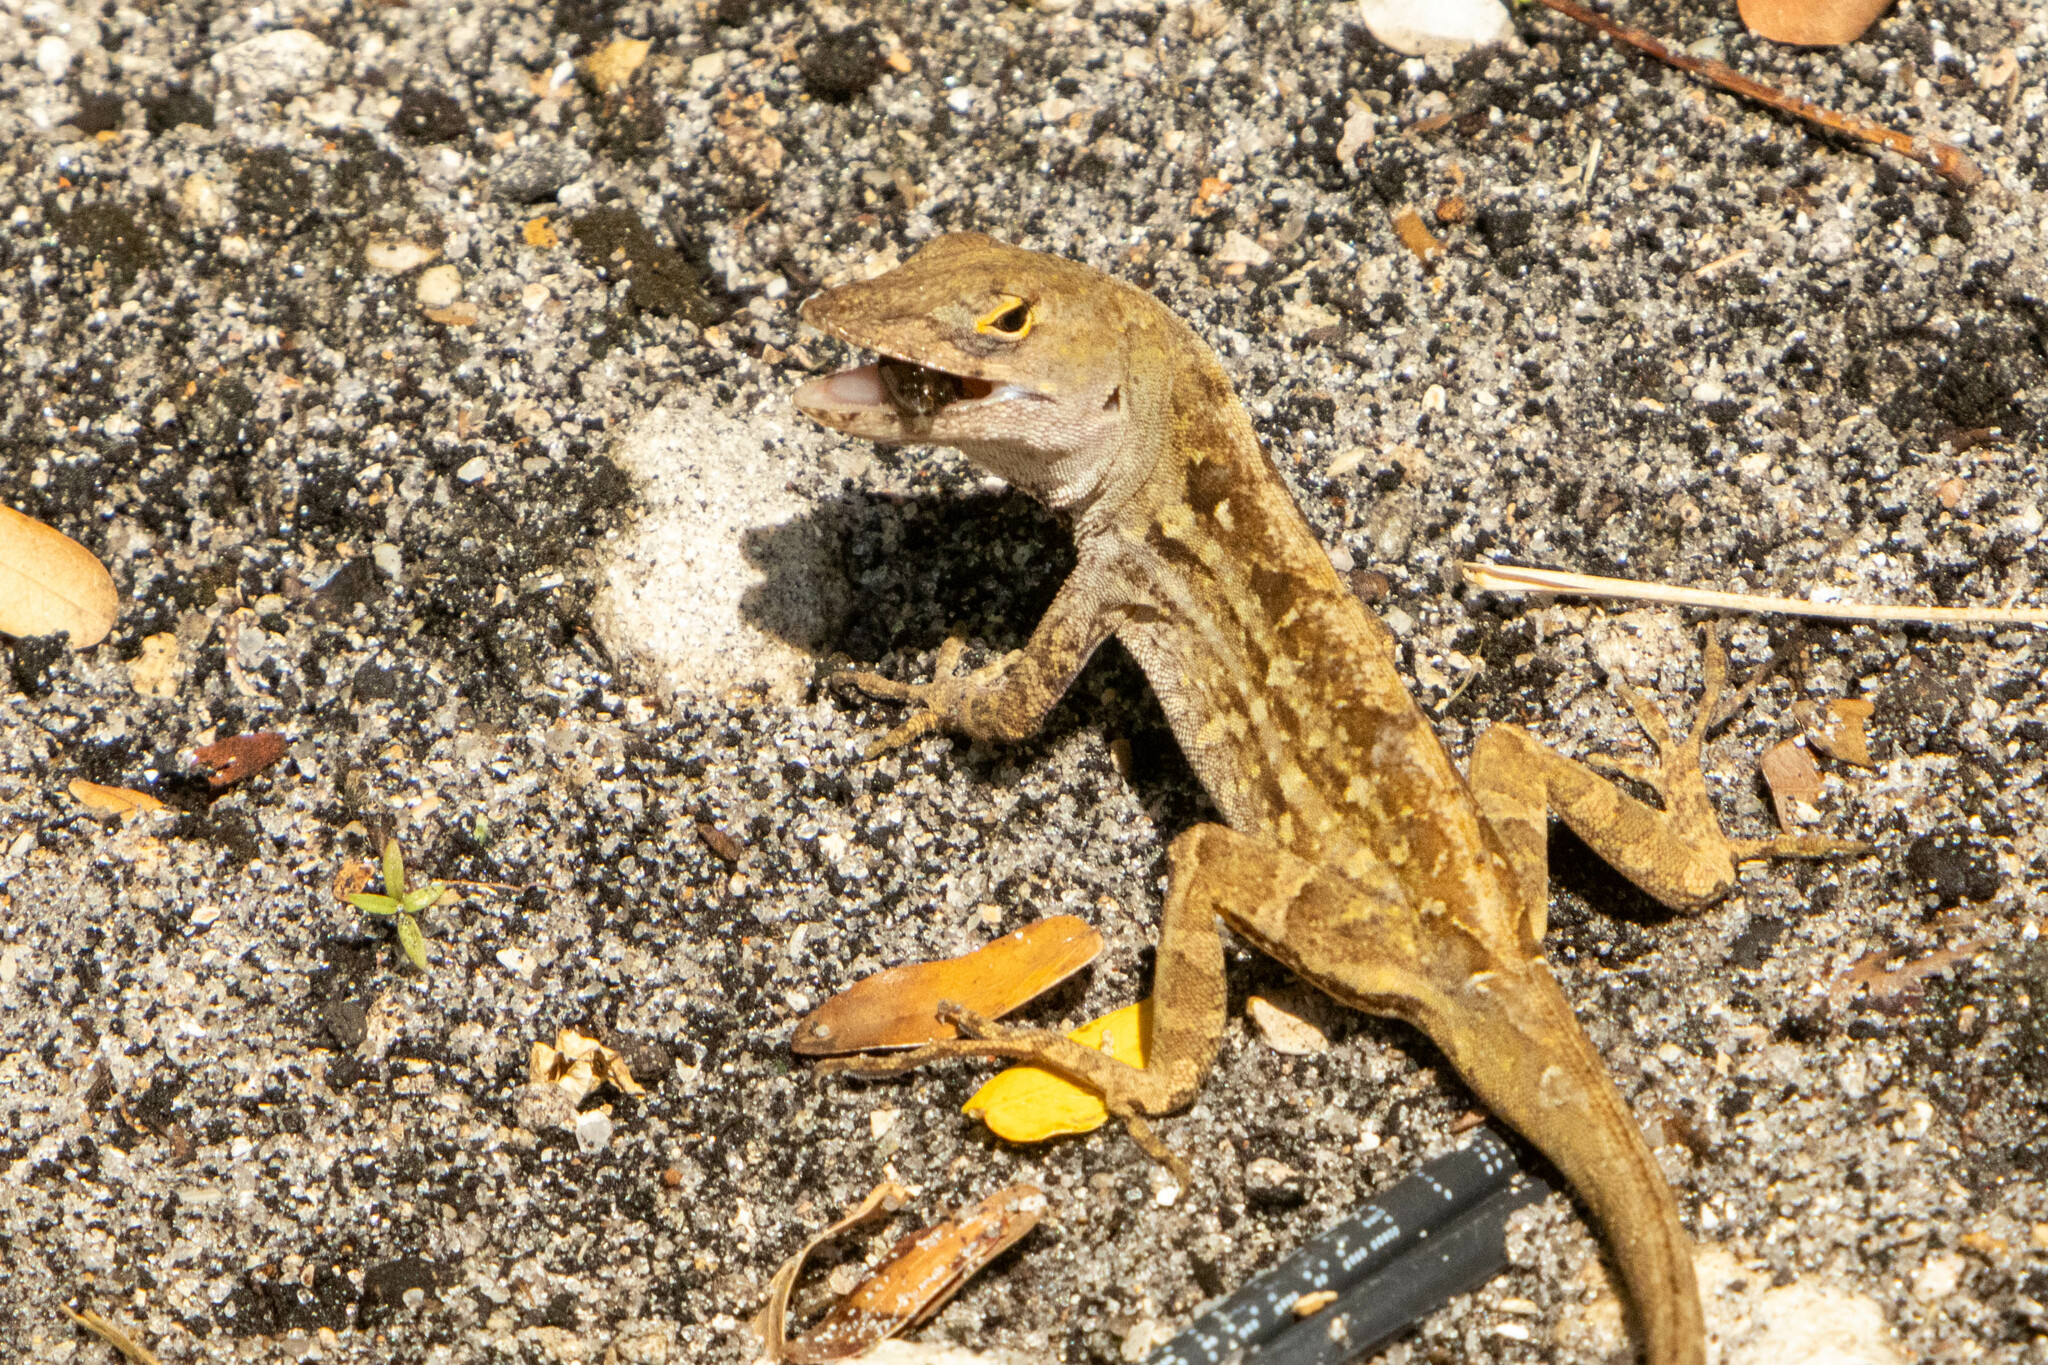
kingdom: Animalia
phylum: Chordata
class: Squamata
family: Dactyloidae
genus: Anolis
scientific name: Anolis sagrei
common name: Brown anole
